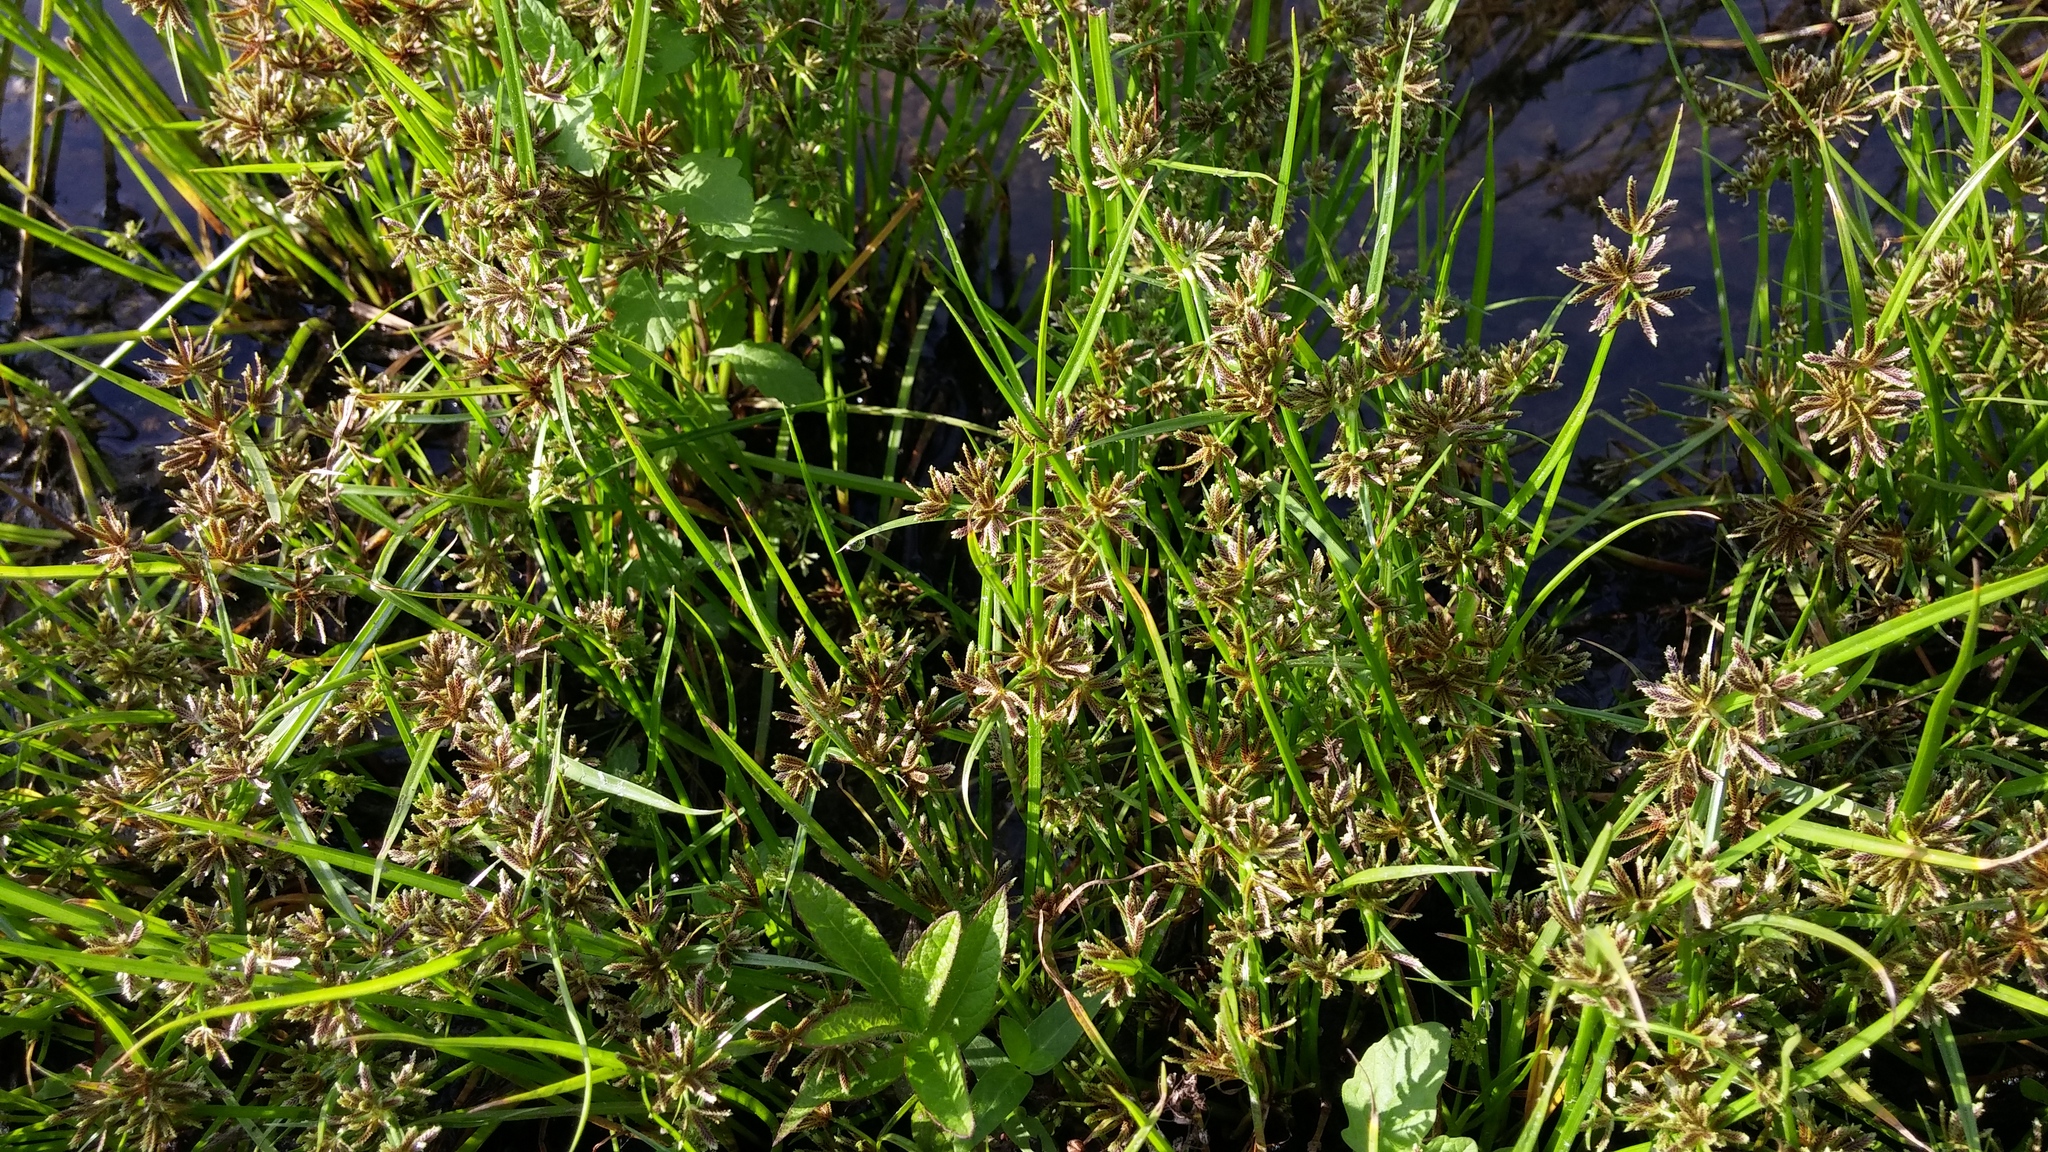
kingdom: Plantae
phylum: Tracheophyta
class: Liliopsida
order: Poales
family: Cyperaceae
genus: Cyperus
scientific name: Cyperus fuscus
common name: Brown galingale
